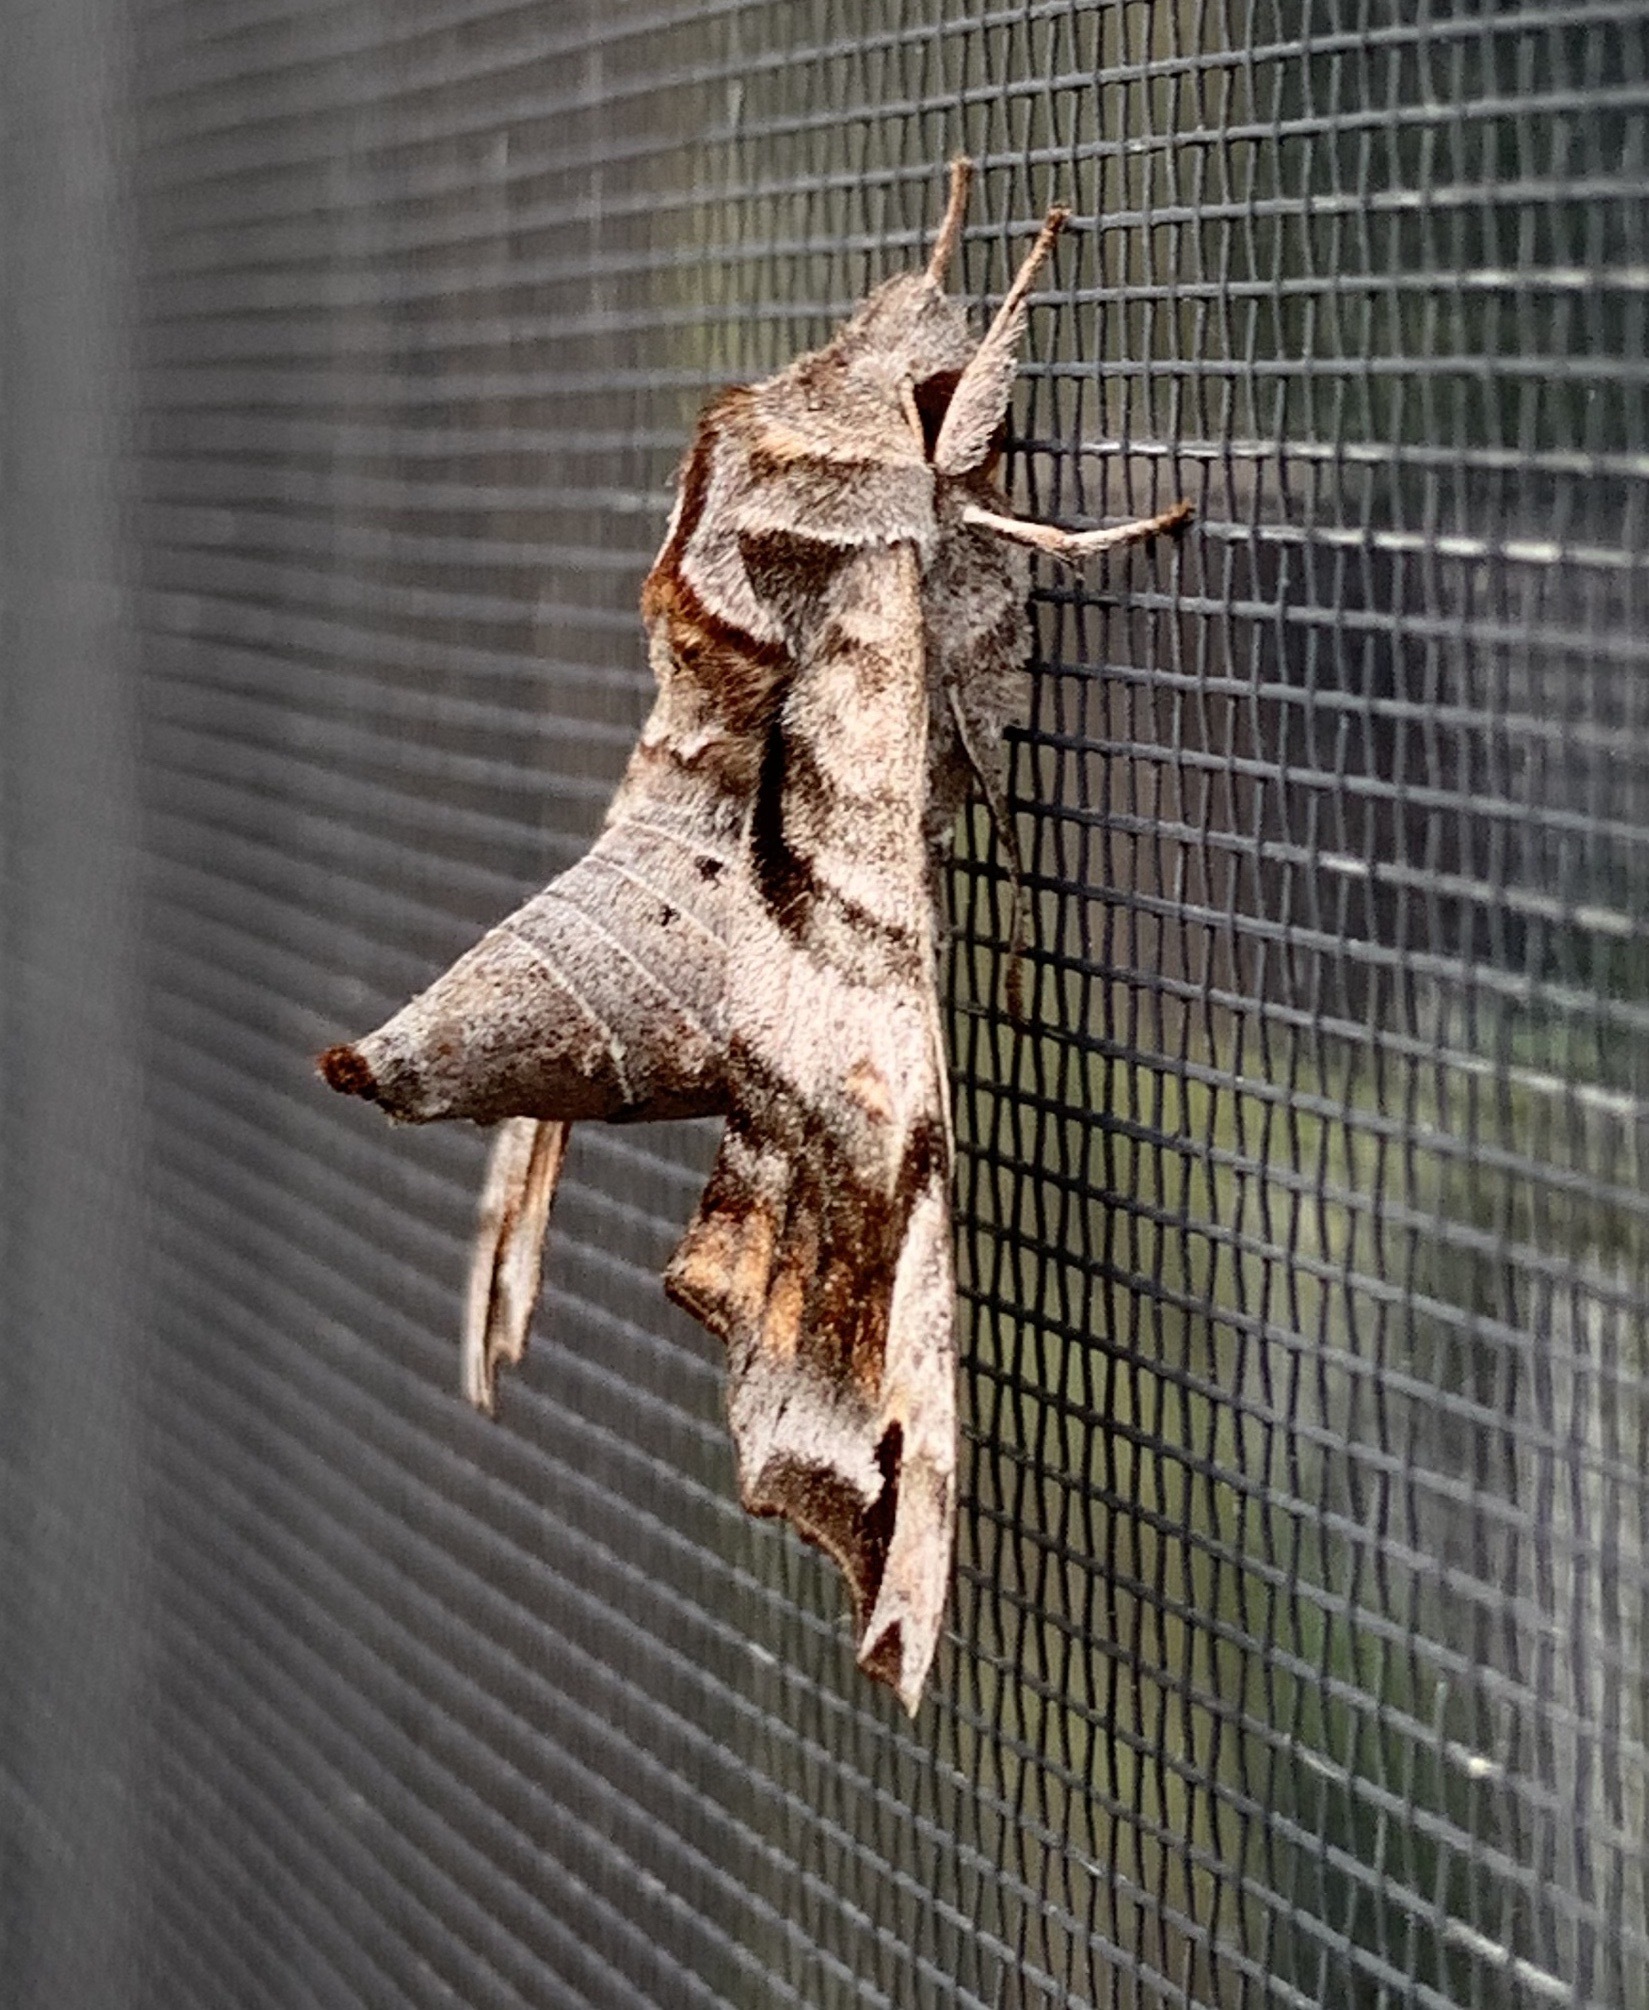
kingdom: Animalia
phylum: Arthropoda
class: Insecta
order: Lepidoptera
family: Sphingidae
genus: Deidamia
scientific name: Deidamia inscriptum
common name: Lettered sphinx
